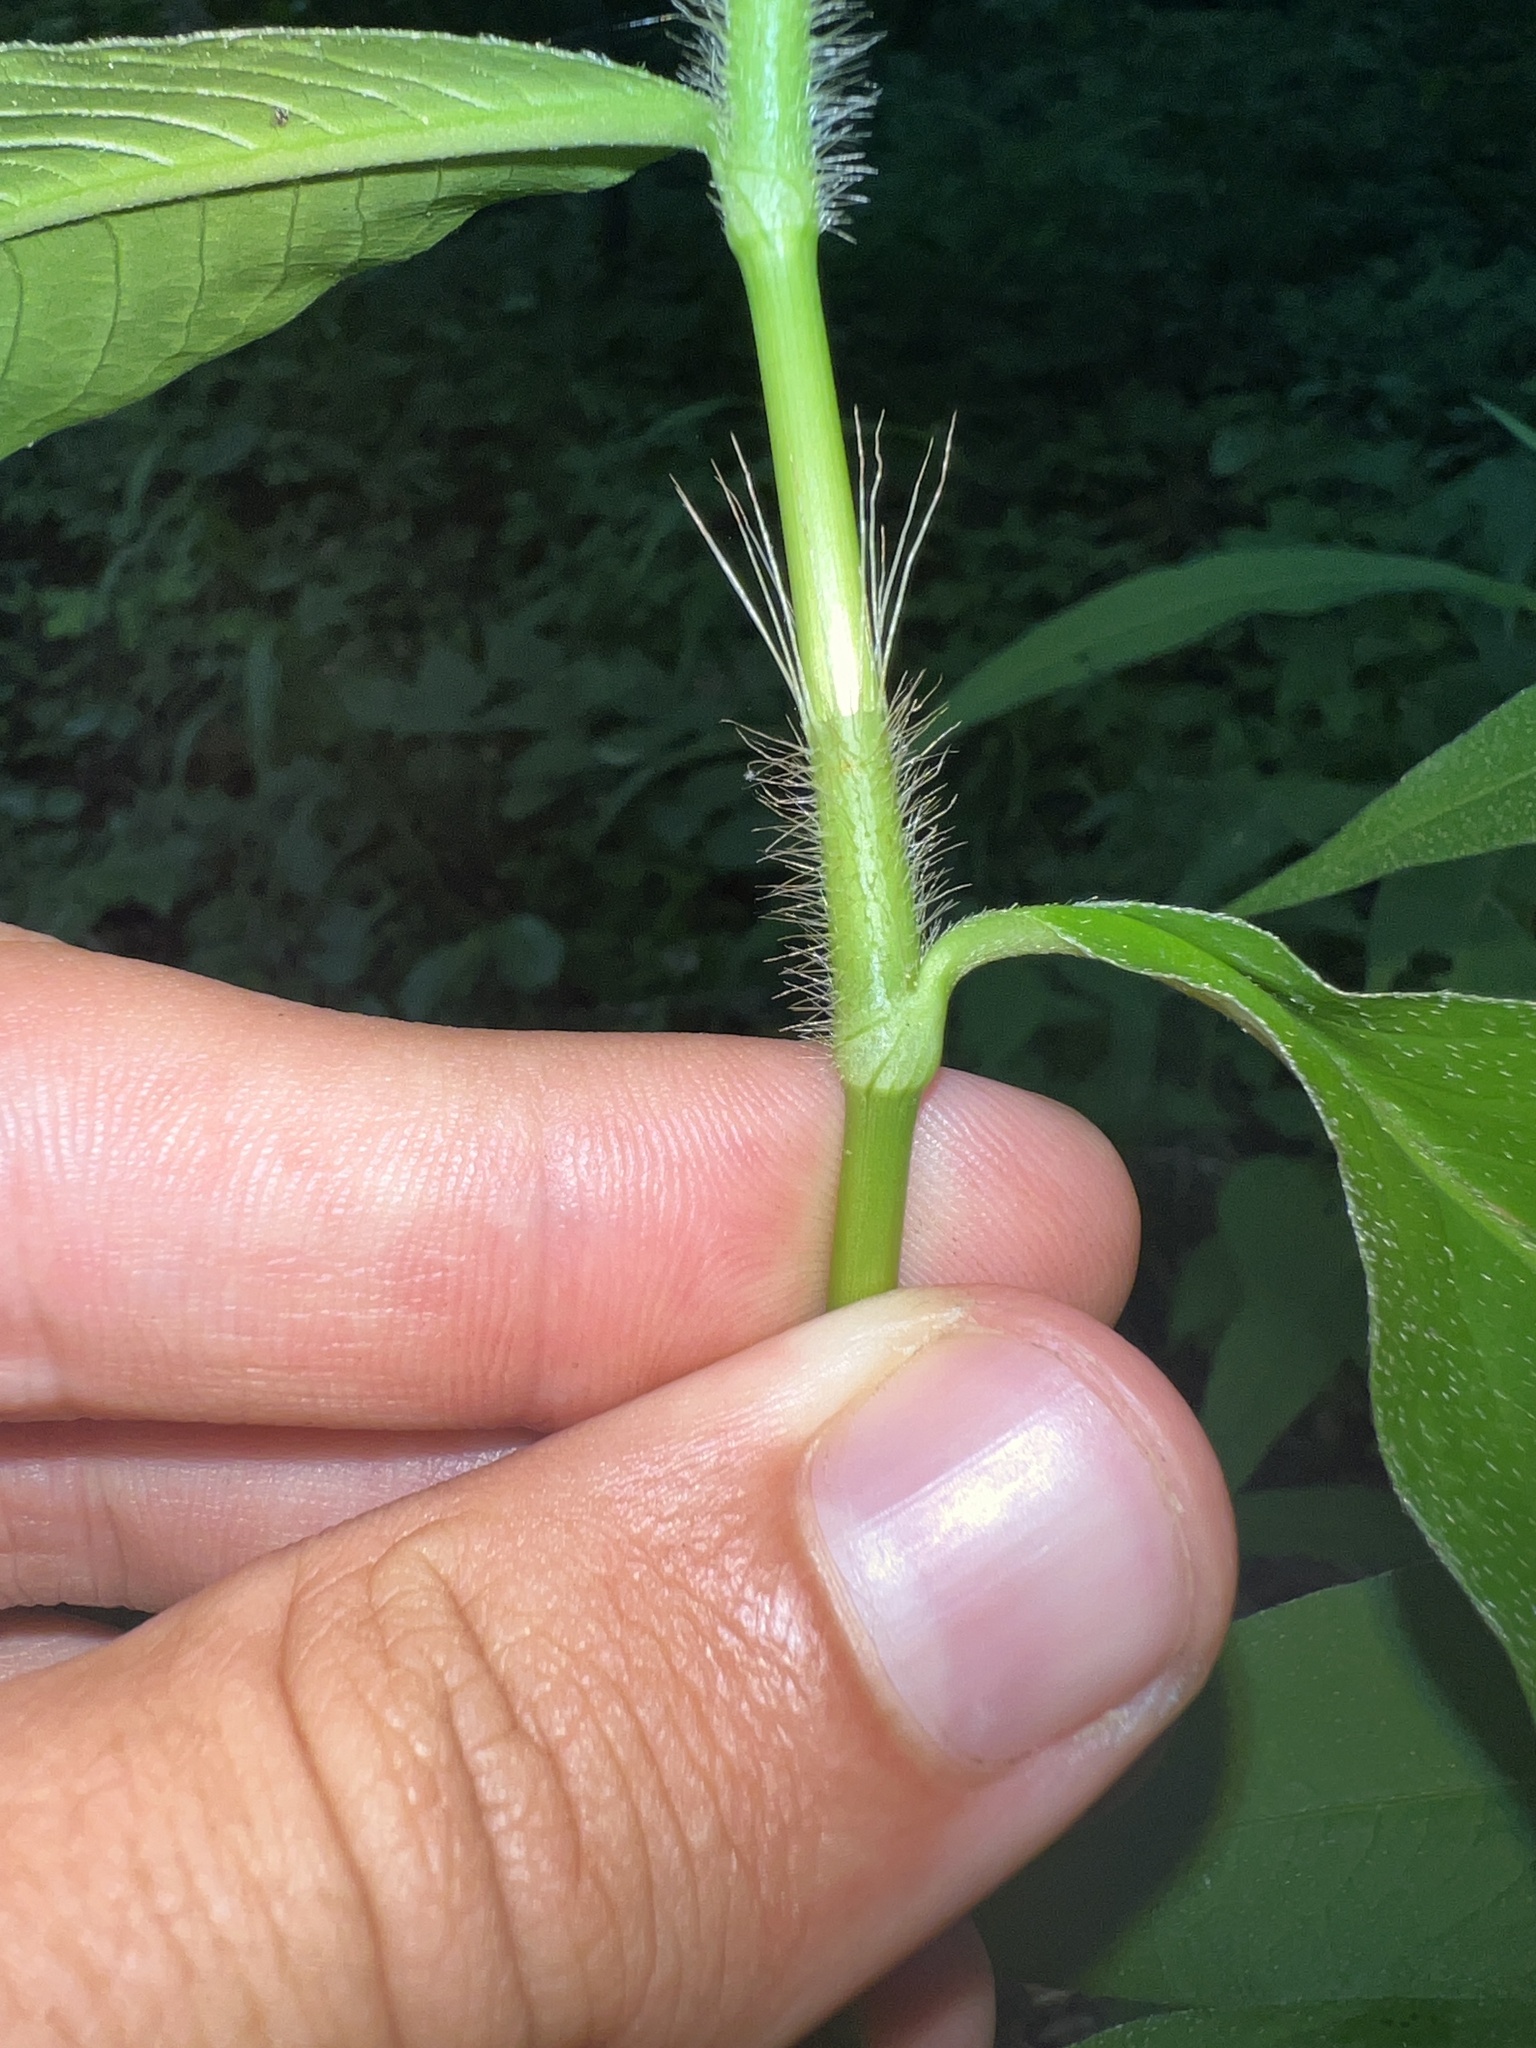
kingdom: Plantae
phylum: Tracheophyta
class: Magnoliopsida
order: Caryophyllales
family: Polygonaceae
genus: Persicaria
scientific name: Persicaria setacea
